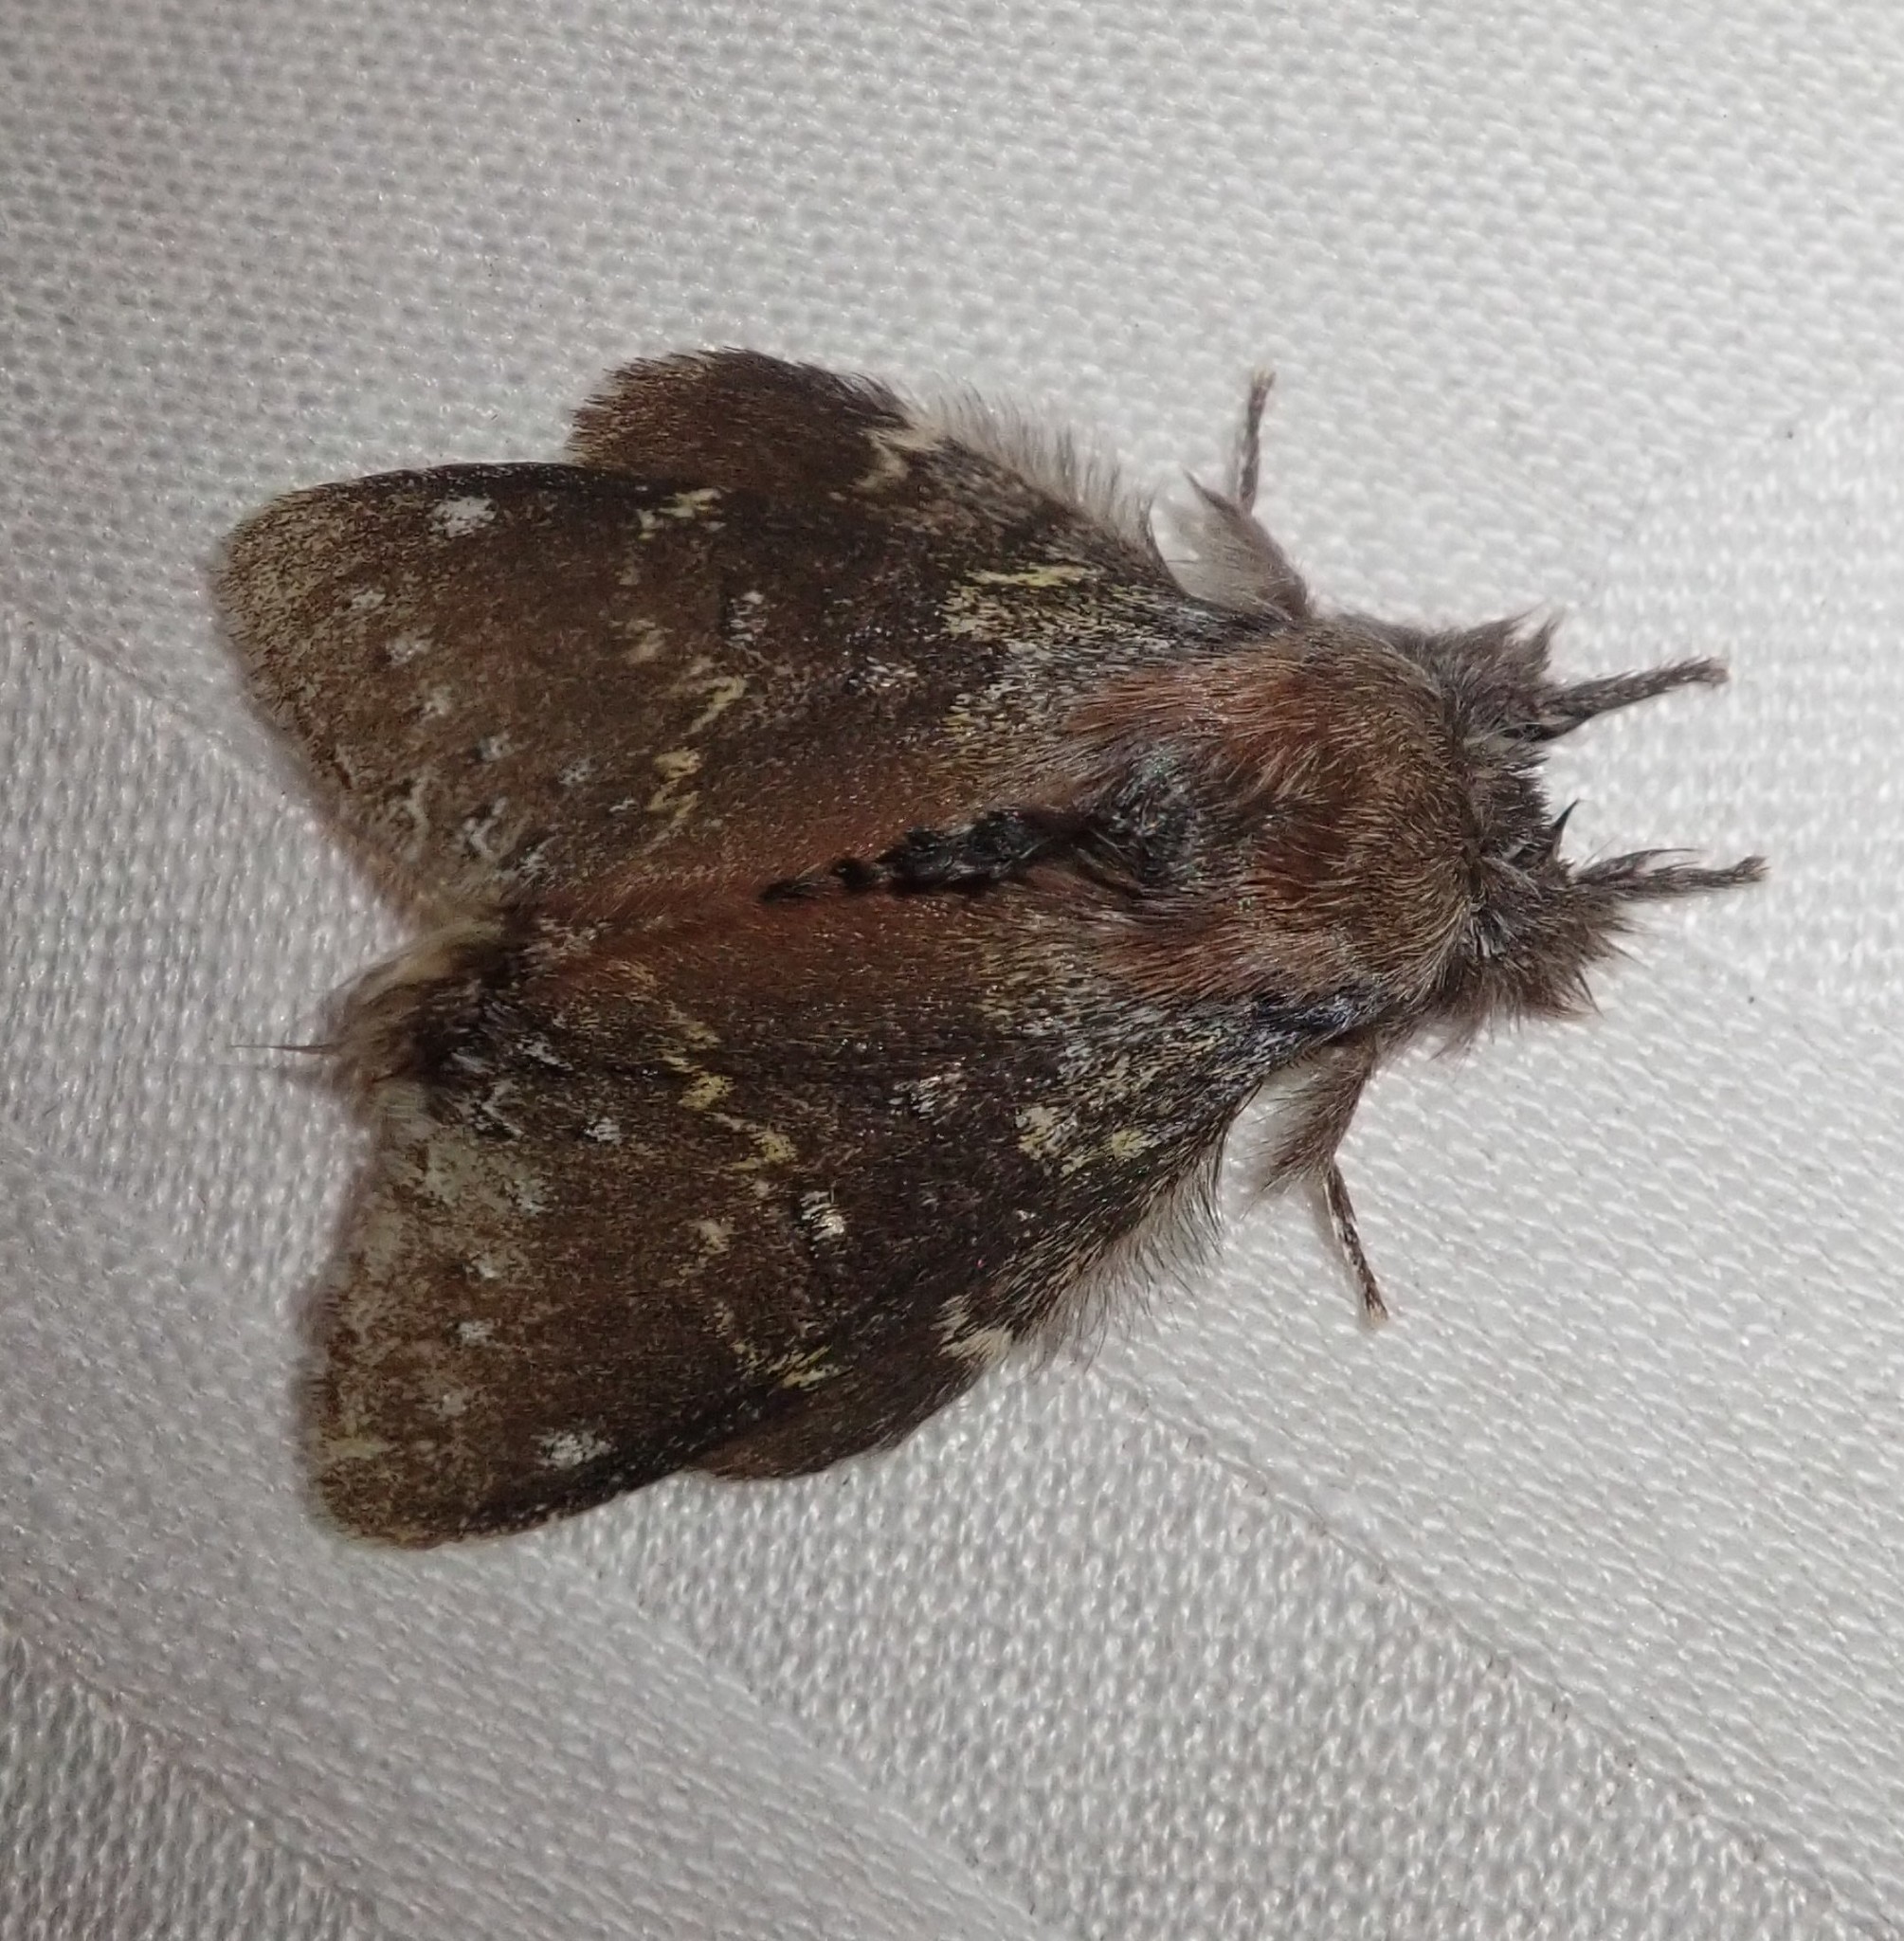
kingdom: Animalia
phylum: Arthropoda
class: Insecta
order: Lepidoptera
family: Notodontidae
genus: Stauropus
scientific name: Stauropus fagi
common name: Lobster moth
